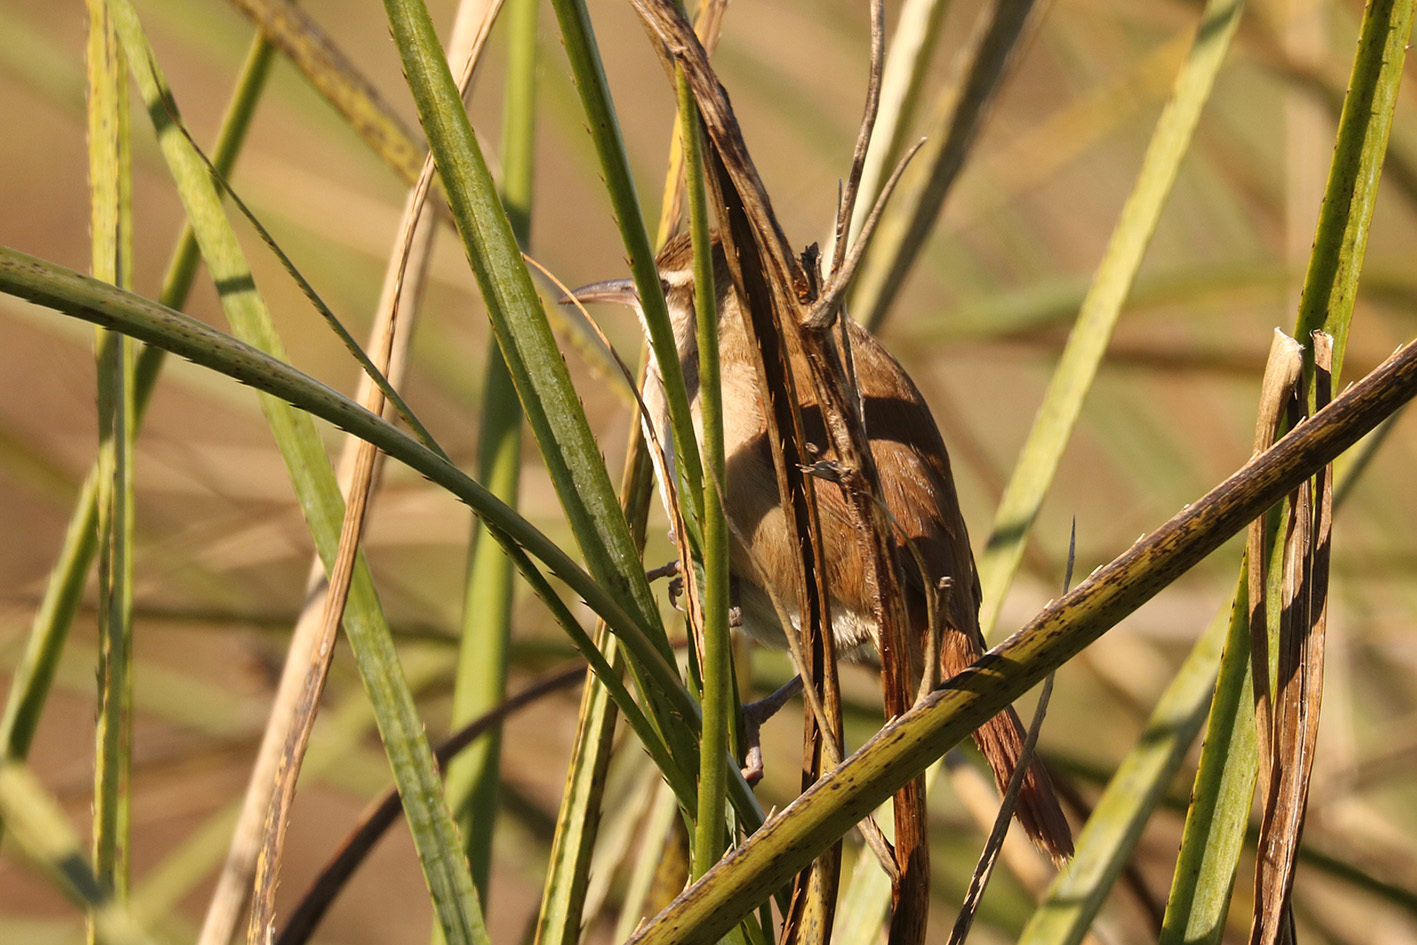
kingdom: Animalia
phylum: Chordata
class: Aves
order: Passeriformes
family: Furnariidae
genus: Limnornis
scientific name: Limnornis curvirostris
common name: Curve-billed reedhaunter
